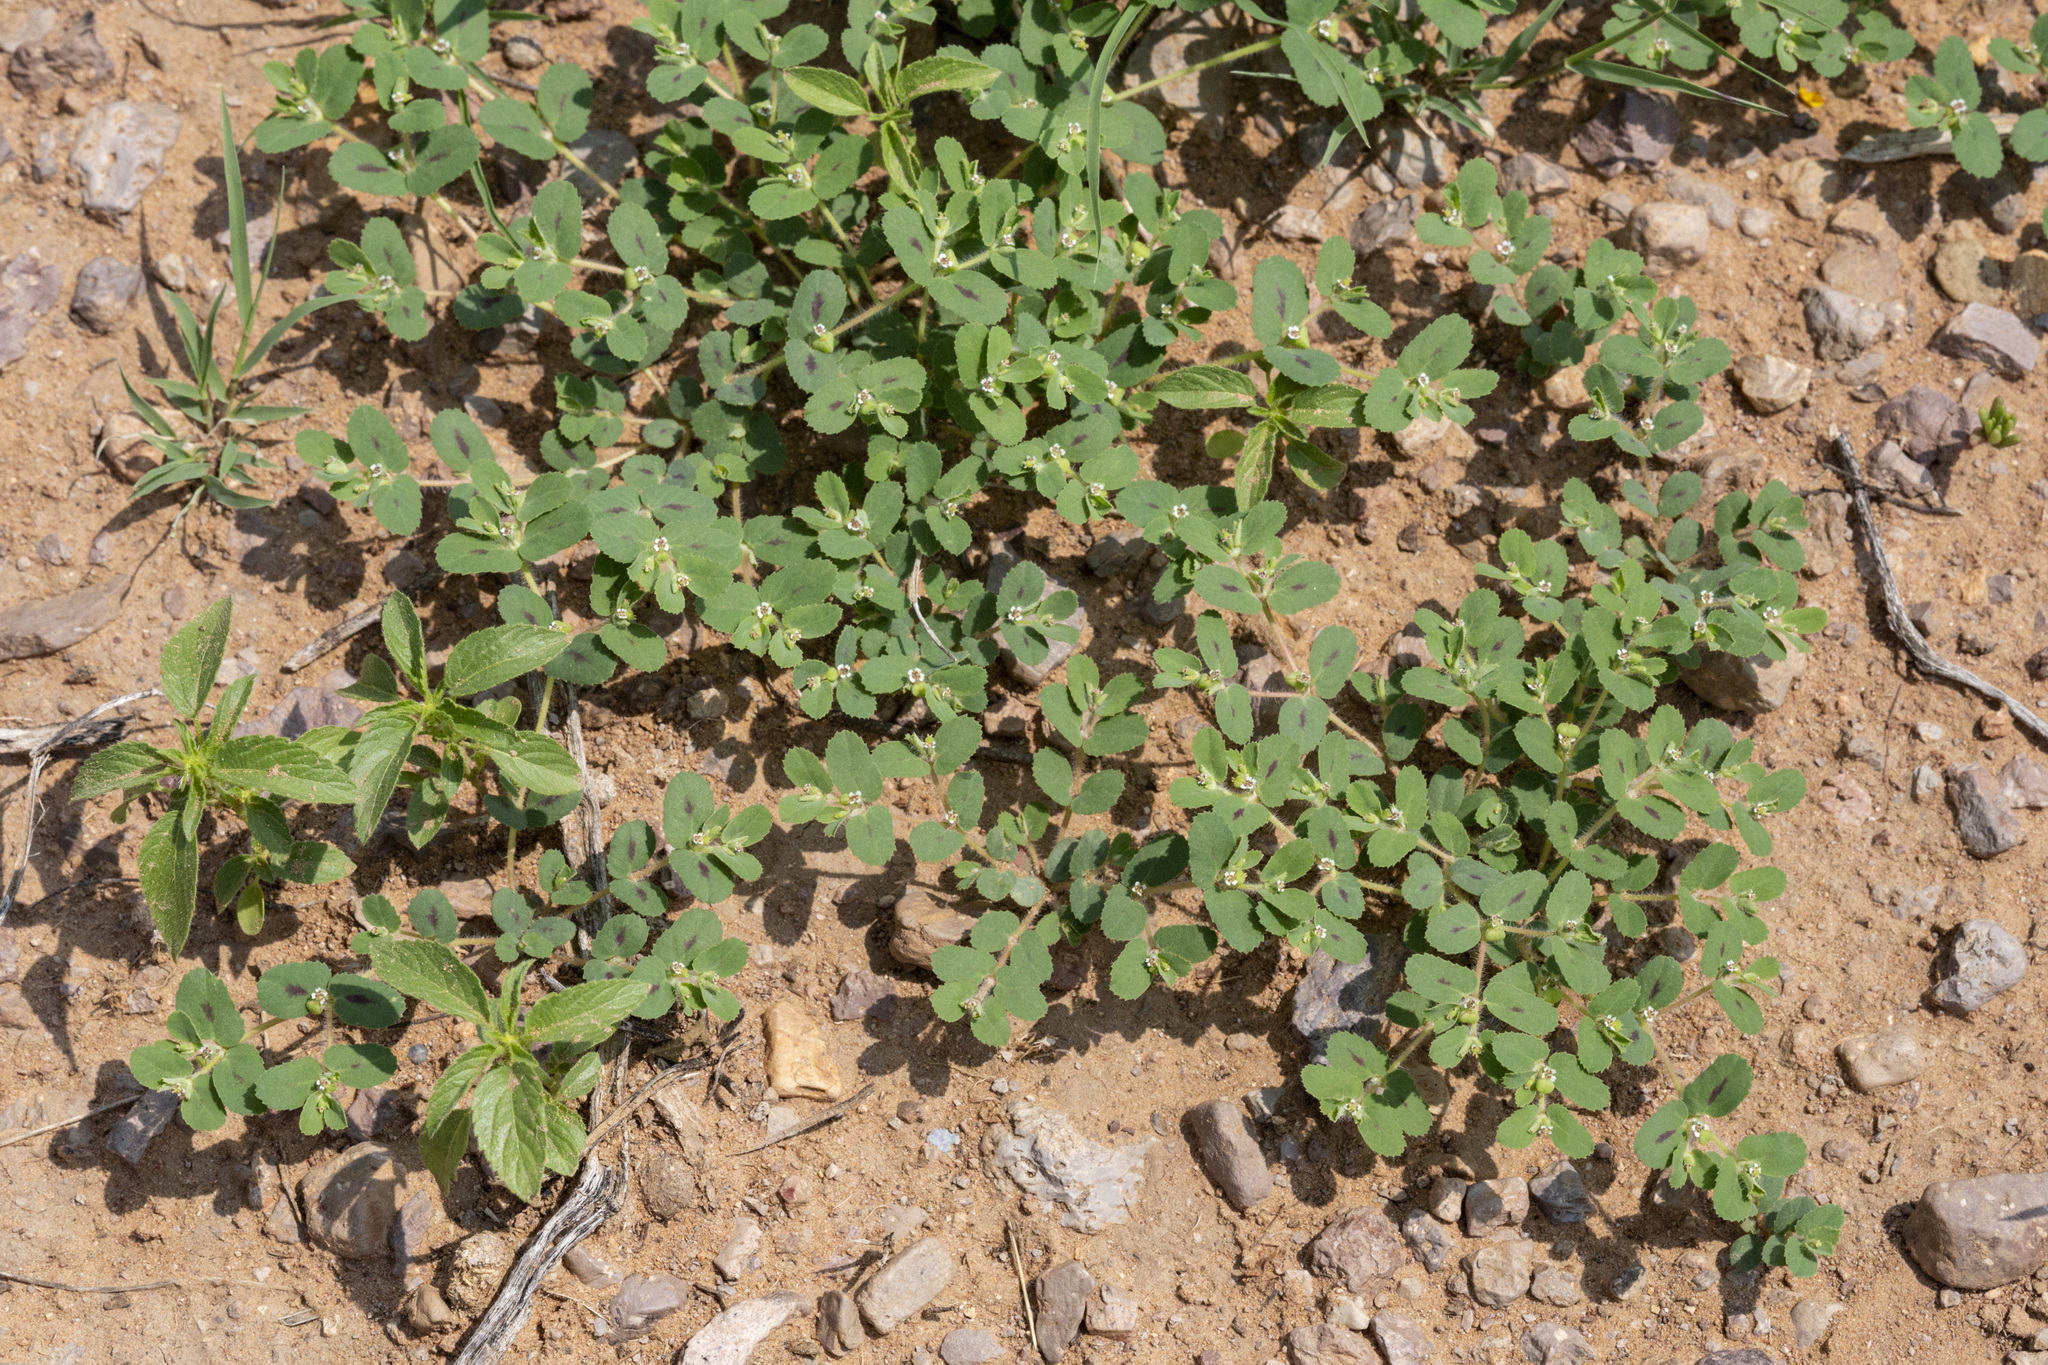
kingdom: Plantae
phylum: Tracheophyta
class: Magnoliopsida
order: Malpighiales
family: Euphorbiaceae
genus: Euphorbia
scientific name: Euphorbia serrula
